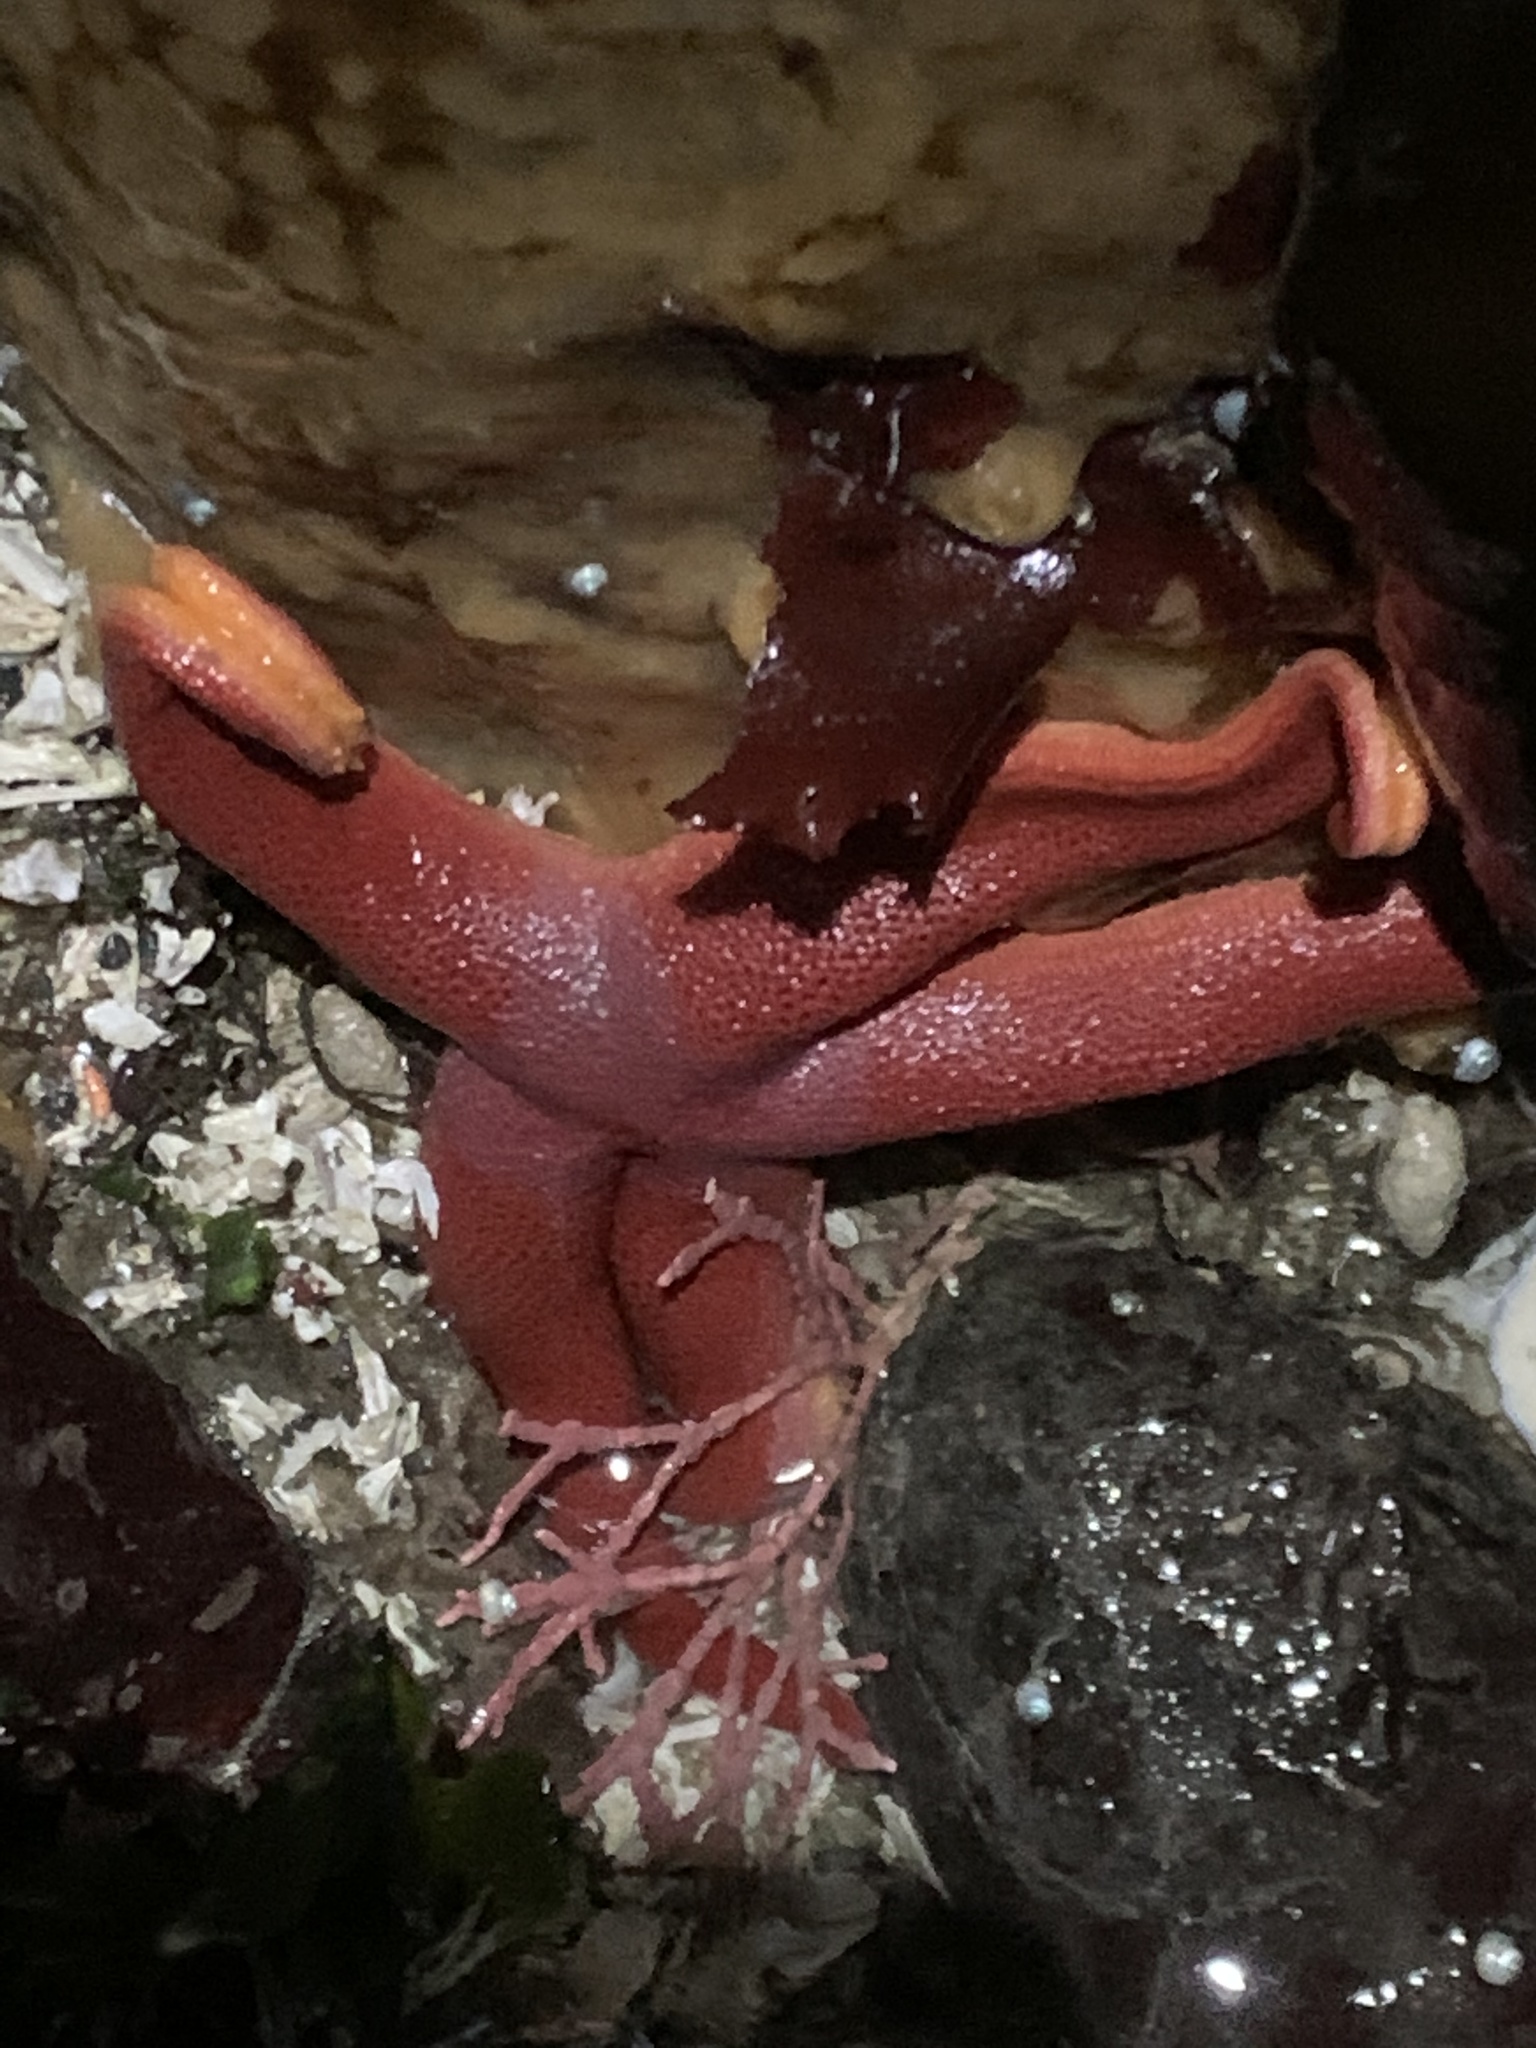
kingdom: Animalia
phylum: Echinodermata
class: Asteroidea
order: Spinulosida
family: Echinasteridae
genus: Henricia
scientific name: Henricia leviuscula
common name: Pacific blood star
